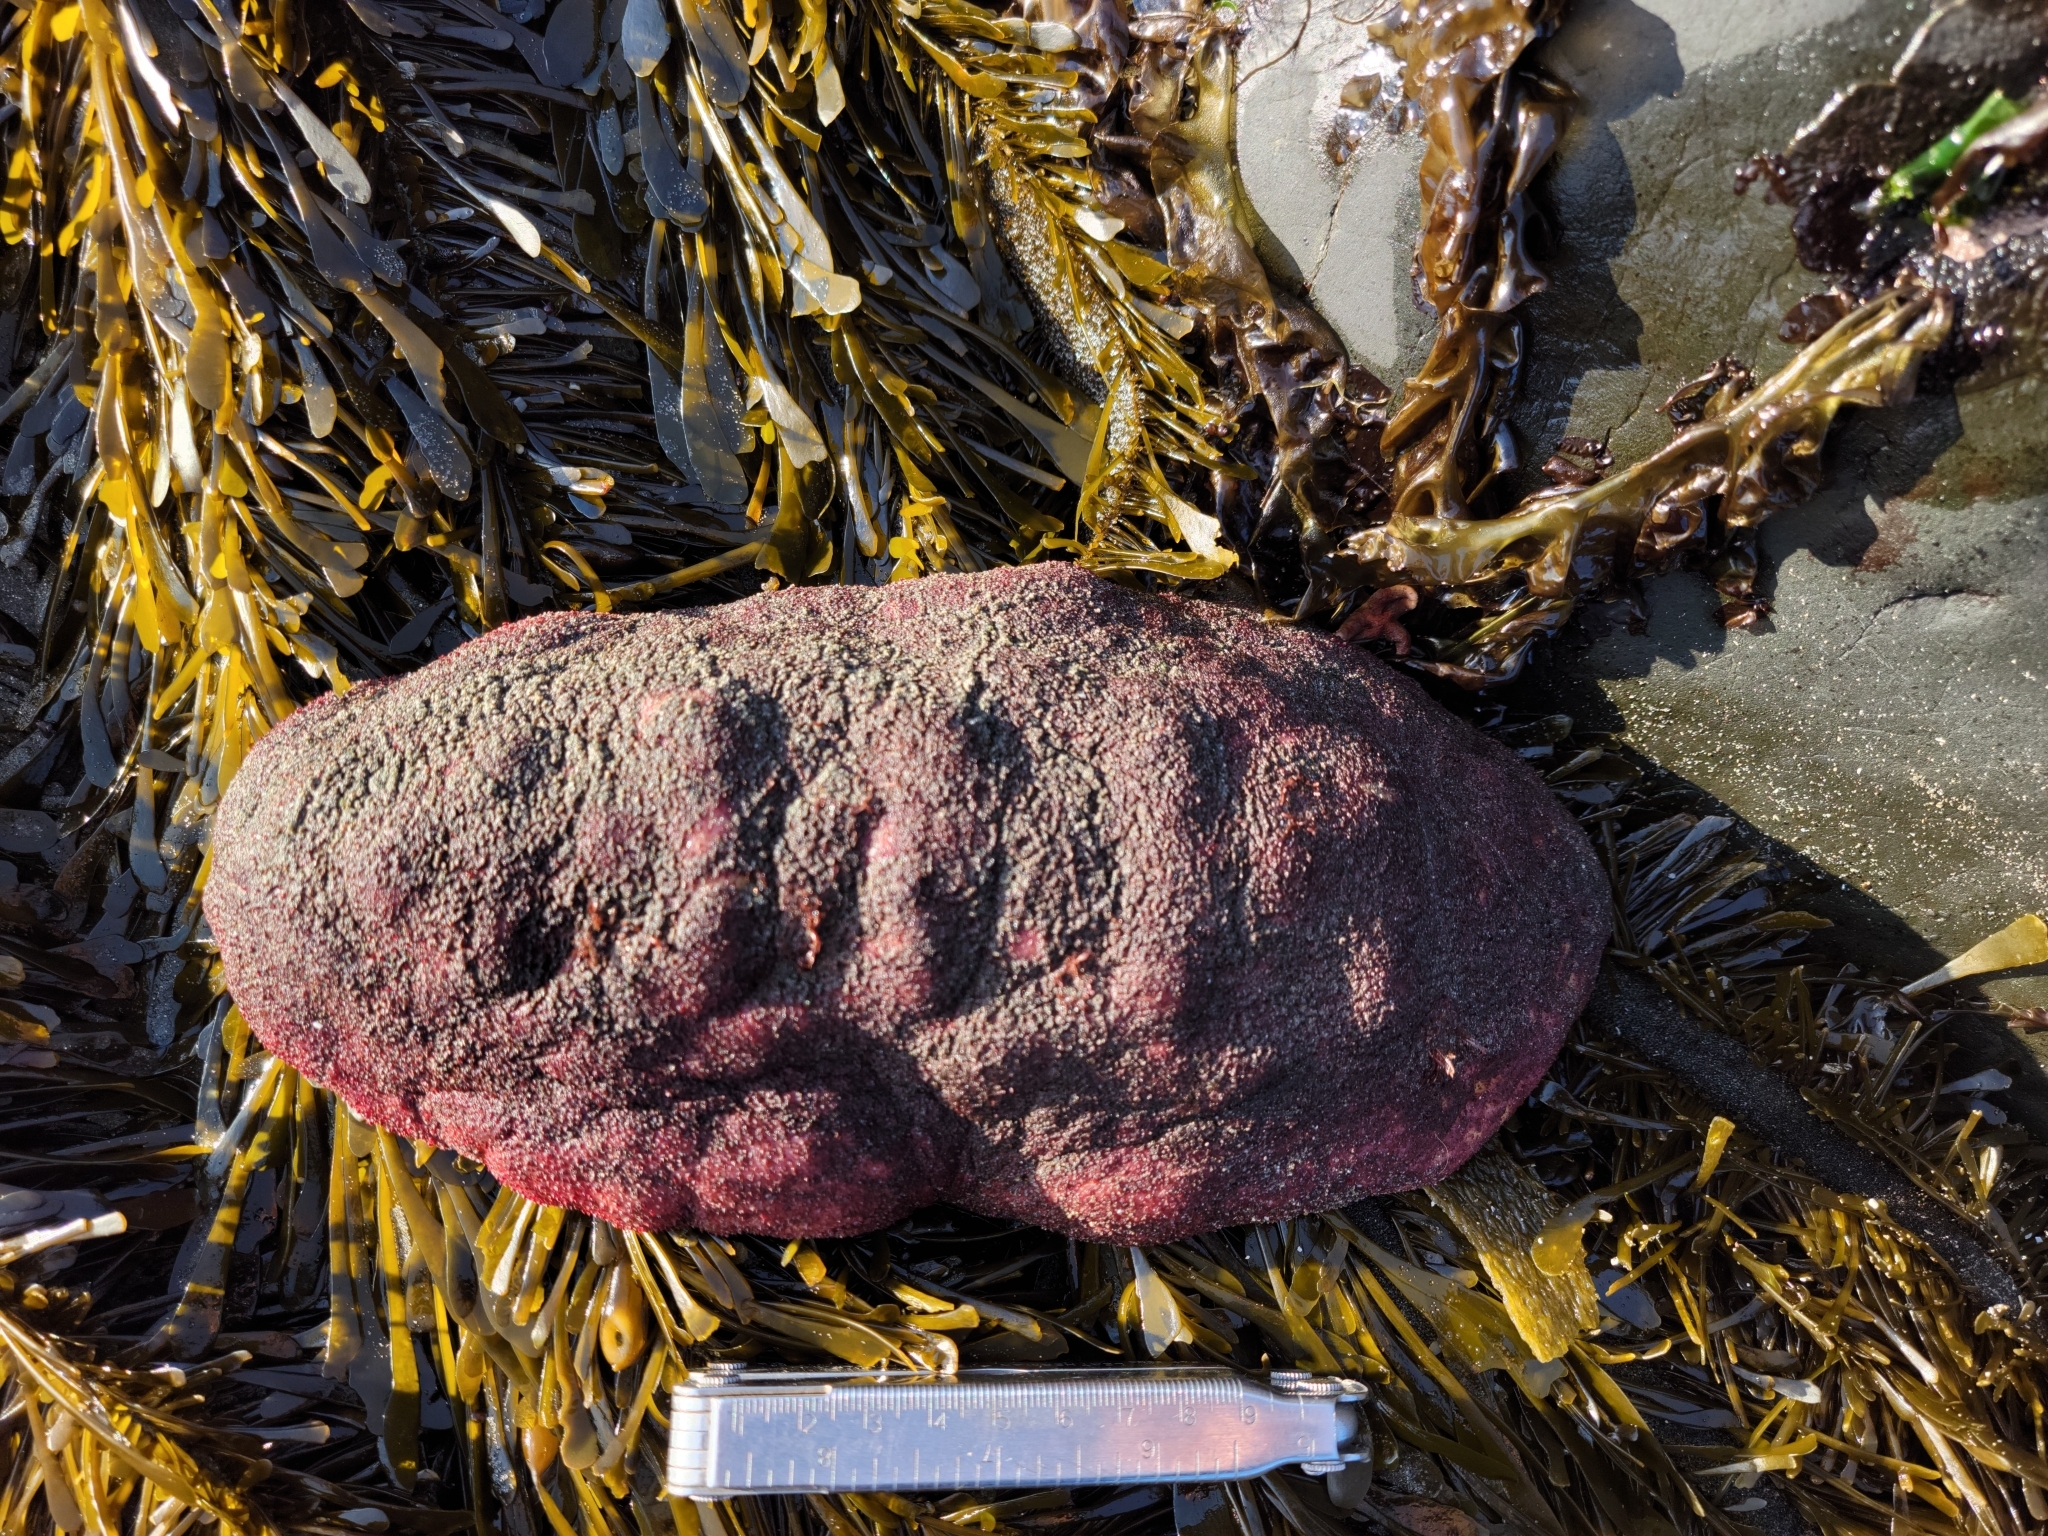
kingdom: Animalia
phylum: Mollusca
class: Polyplacophora
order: Chitonida
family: Acanthochitonidae
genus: Cryptochiton
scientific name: Cryptochiton stelleri
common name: Giant pacific chiton
